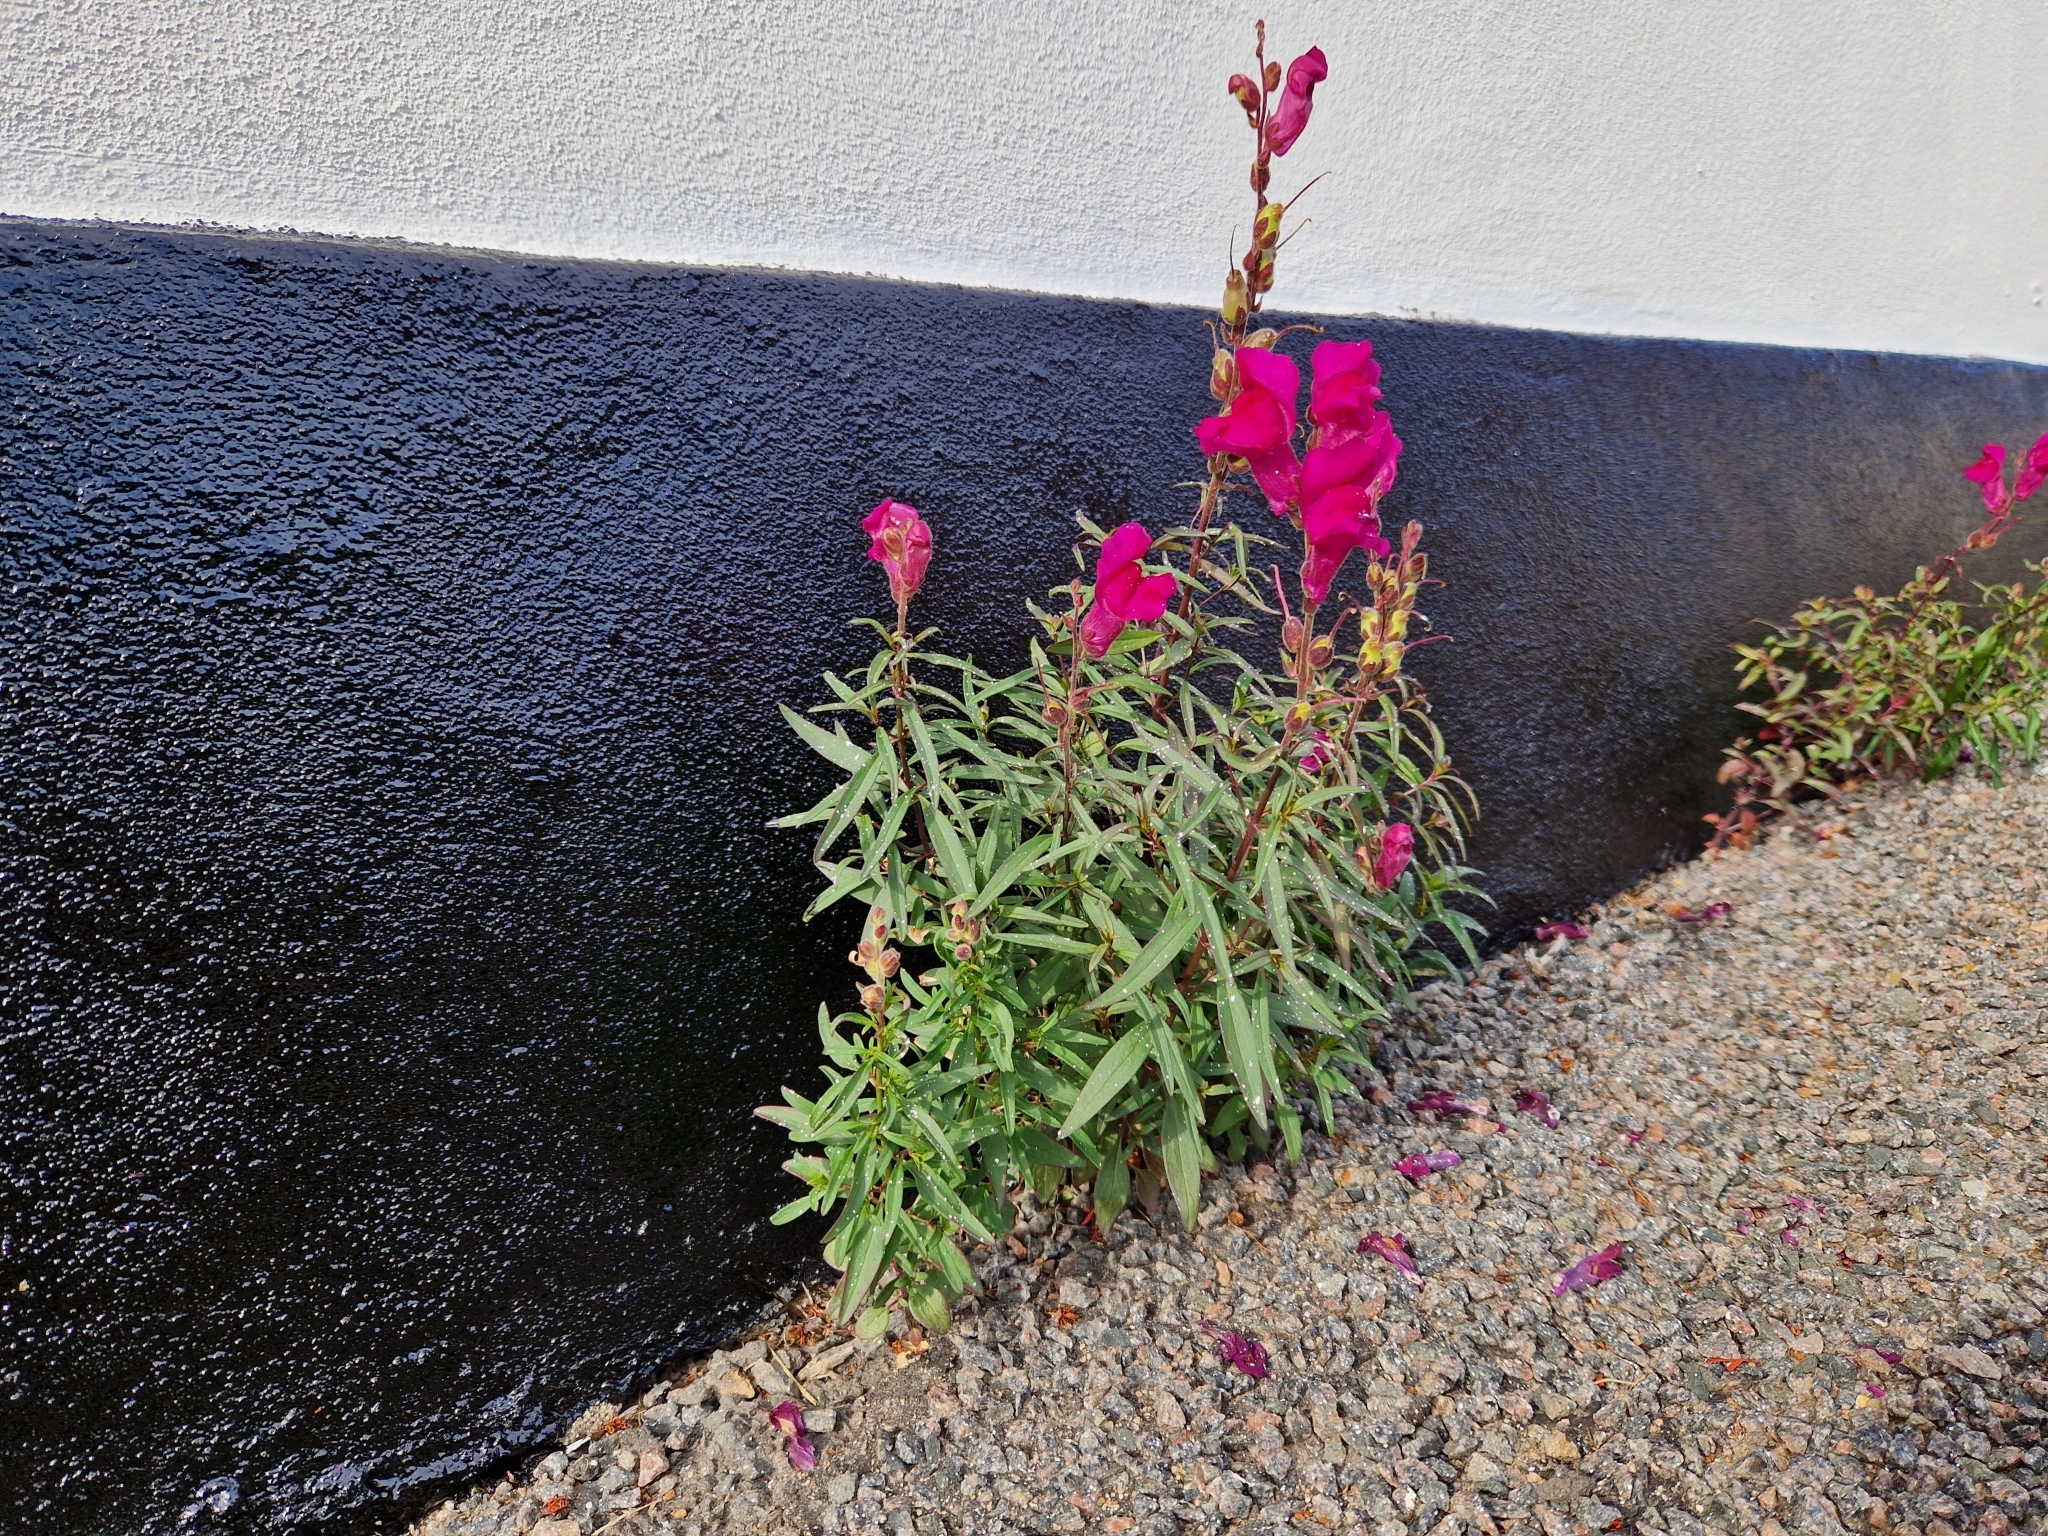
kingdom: Plantae
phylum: Tracheophyta
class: Magnoliopsida
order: Lamiales
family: Plantaginaceae
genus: Antirrhinum
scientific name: Antirrhinum majus
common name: Snapdragon
